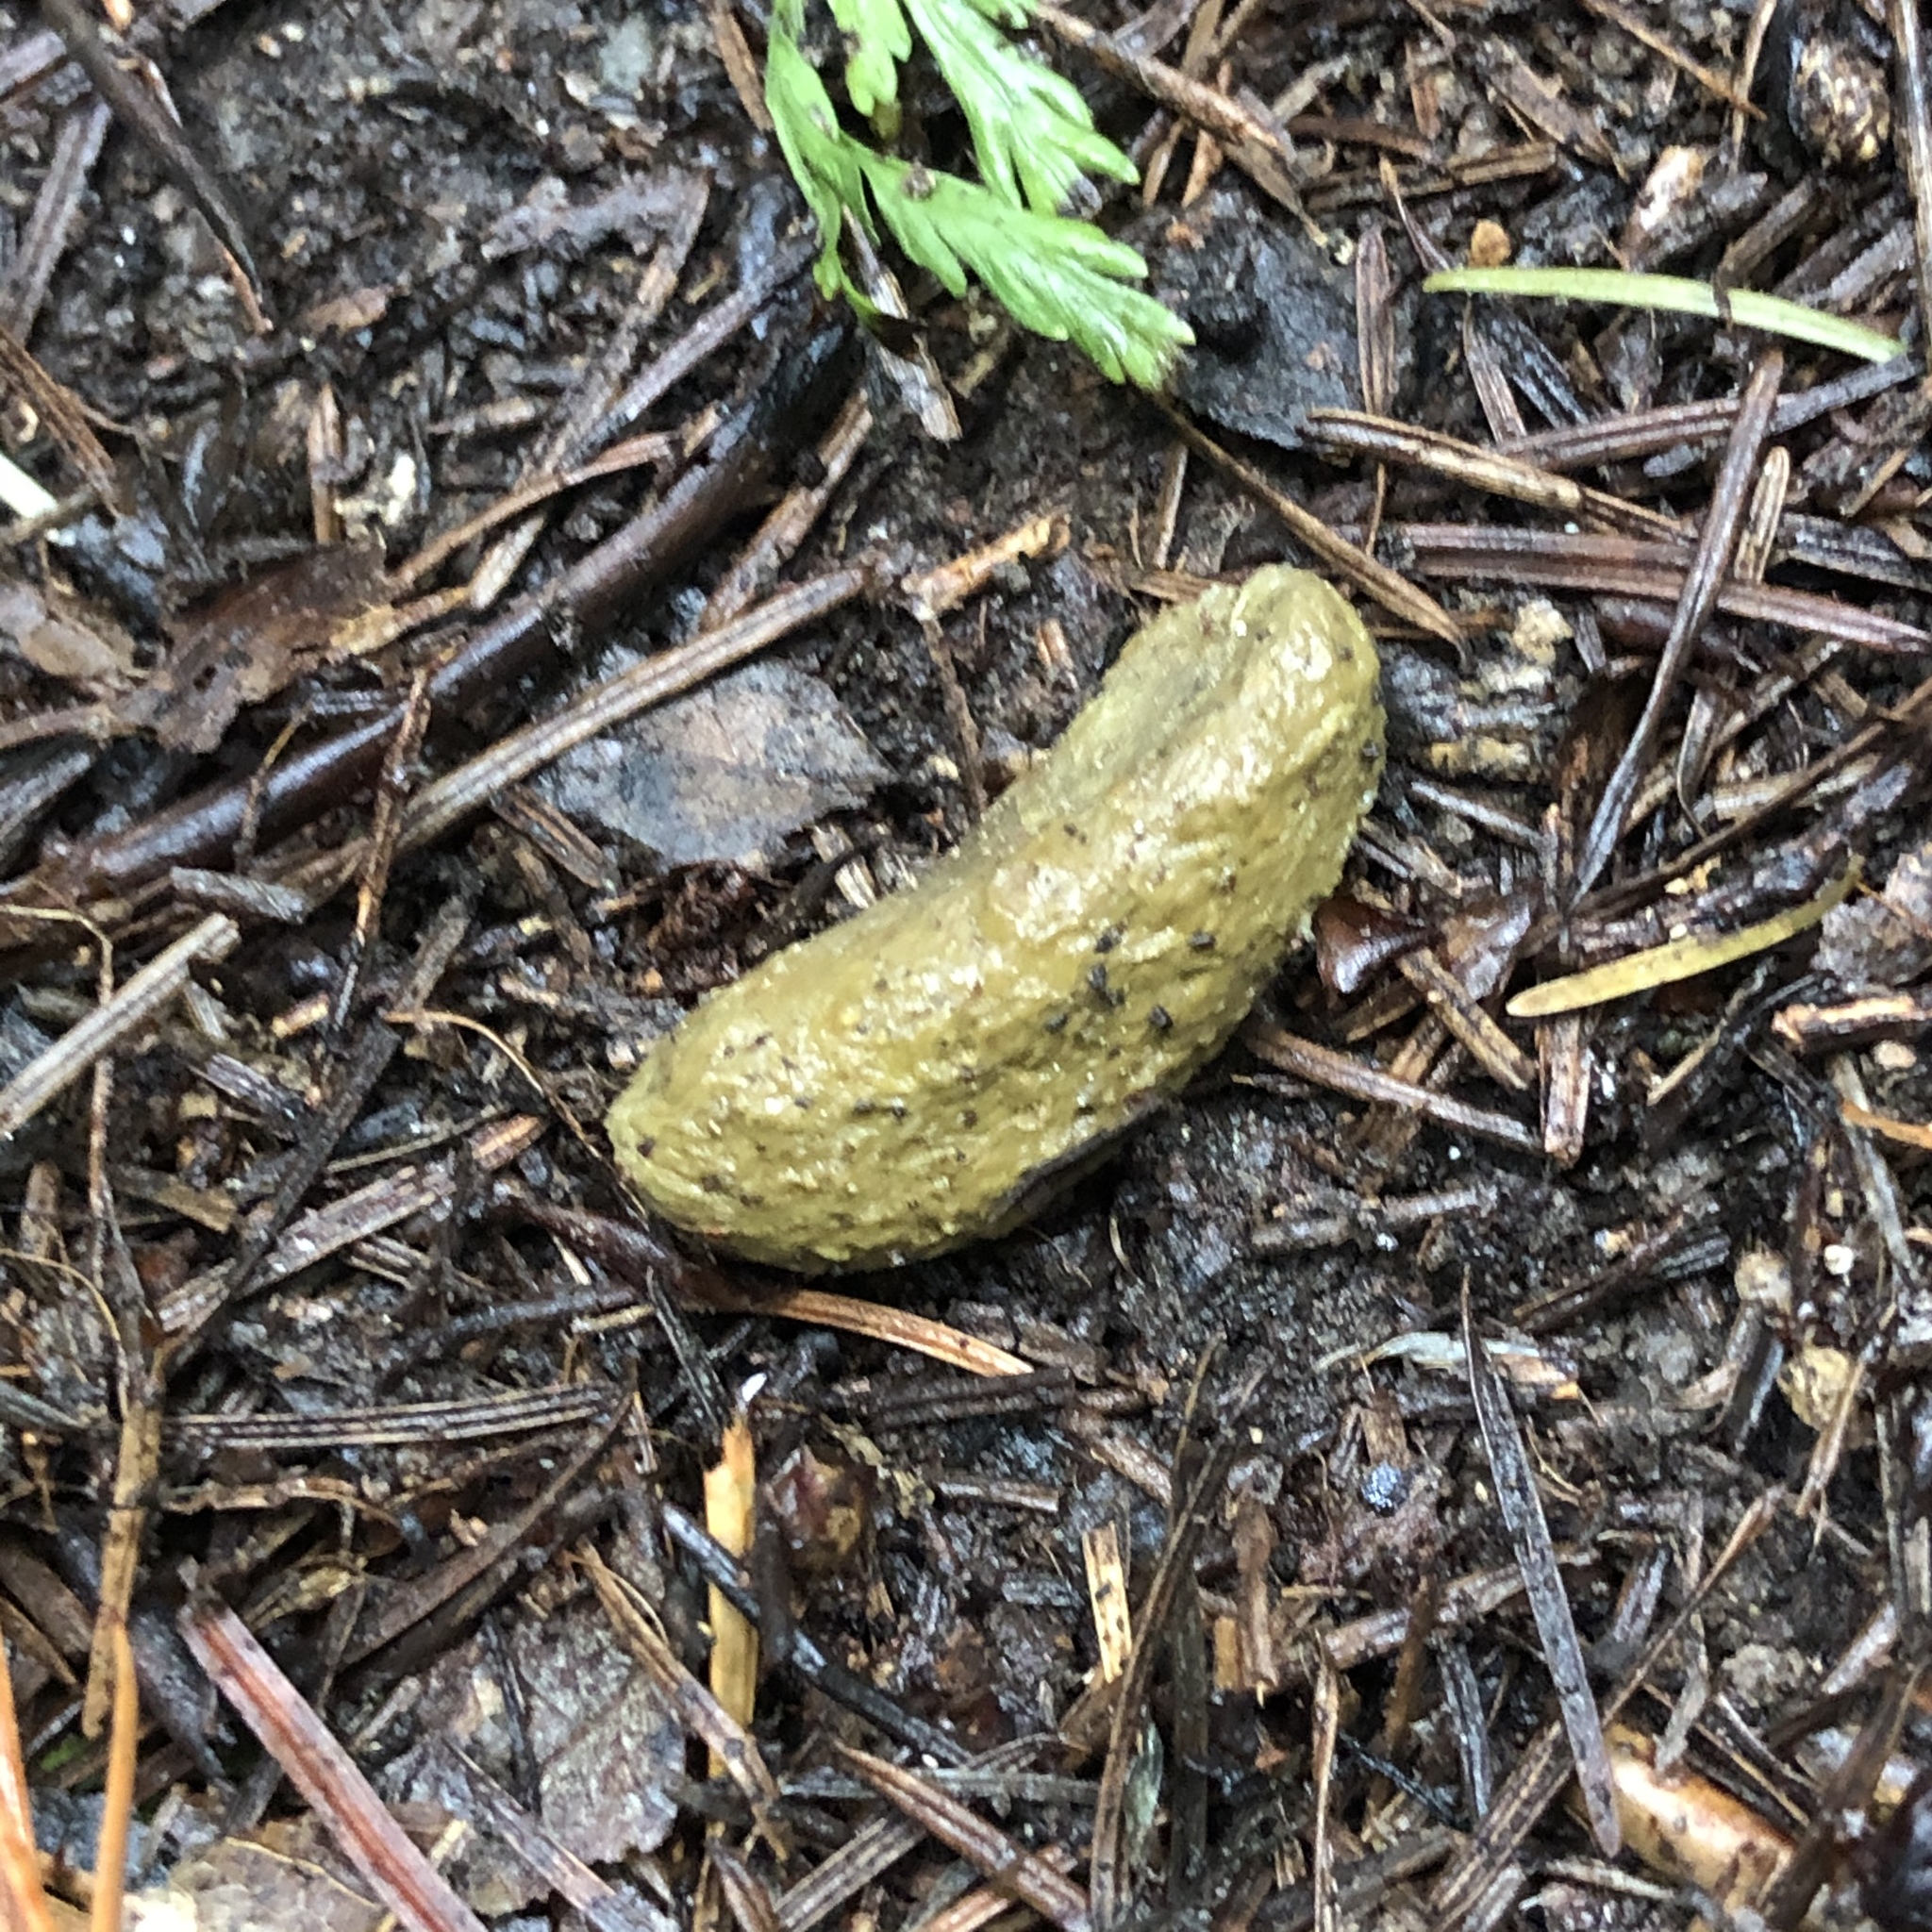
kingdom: Animalia
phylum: Chordata
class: Mammalia
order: Diprotodontia
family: Phalangeridae
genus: Trichosurus
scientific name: Trichosurus vulpecula
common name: Common brushtail
